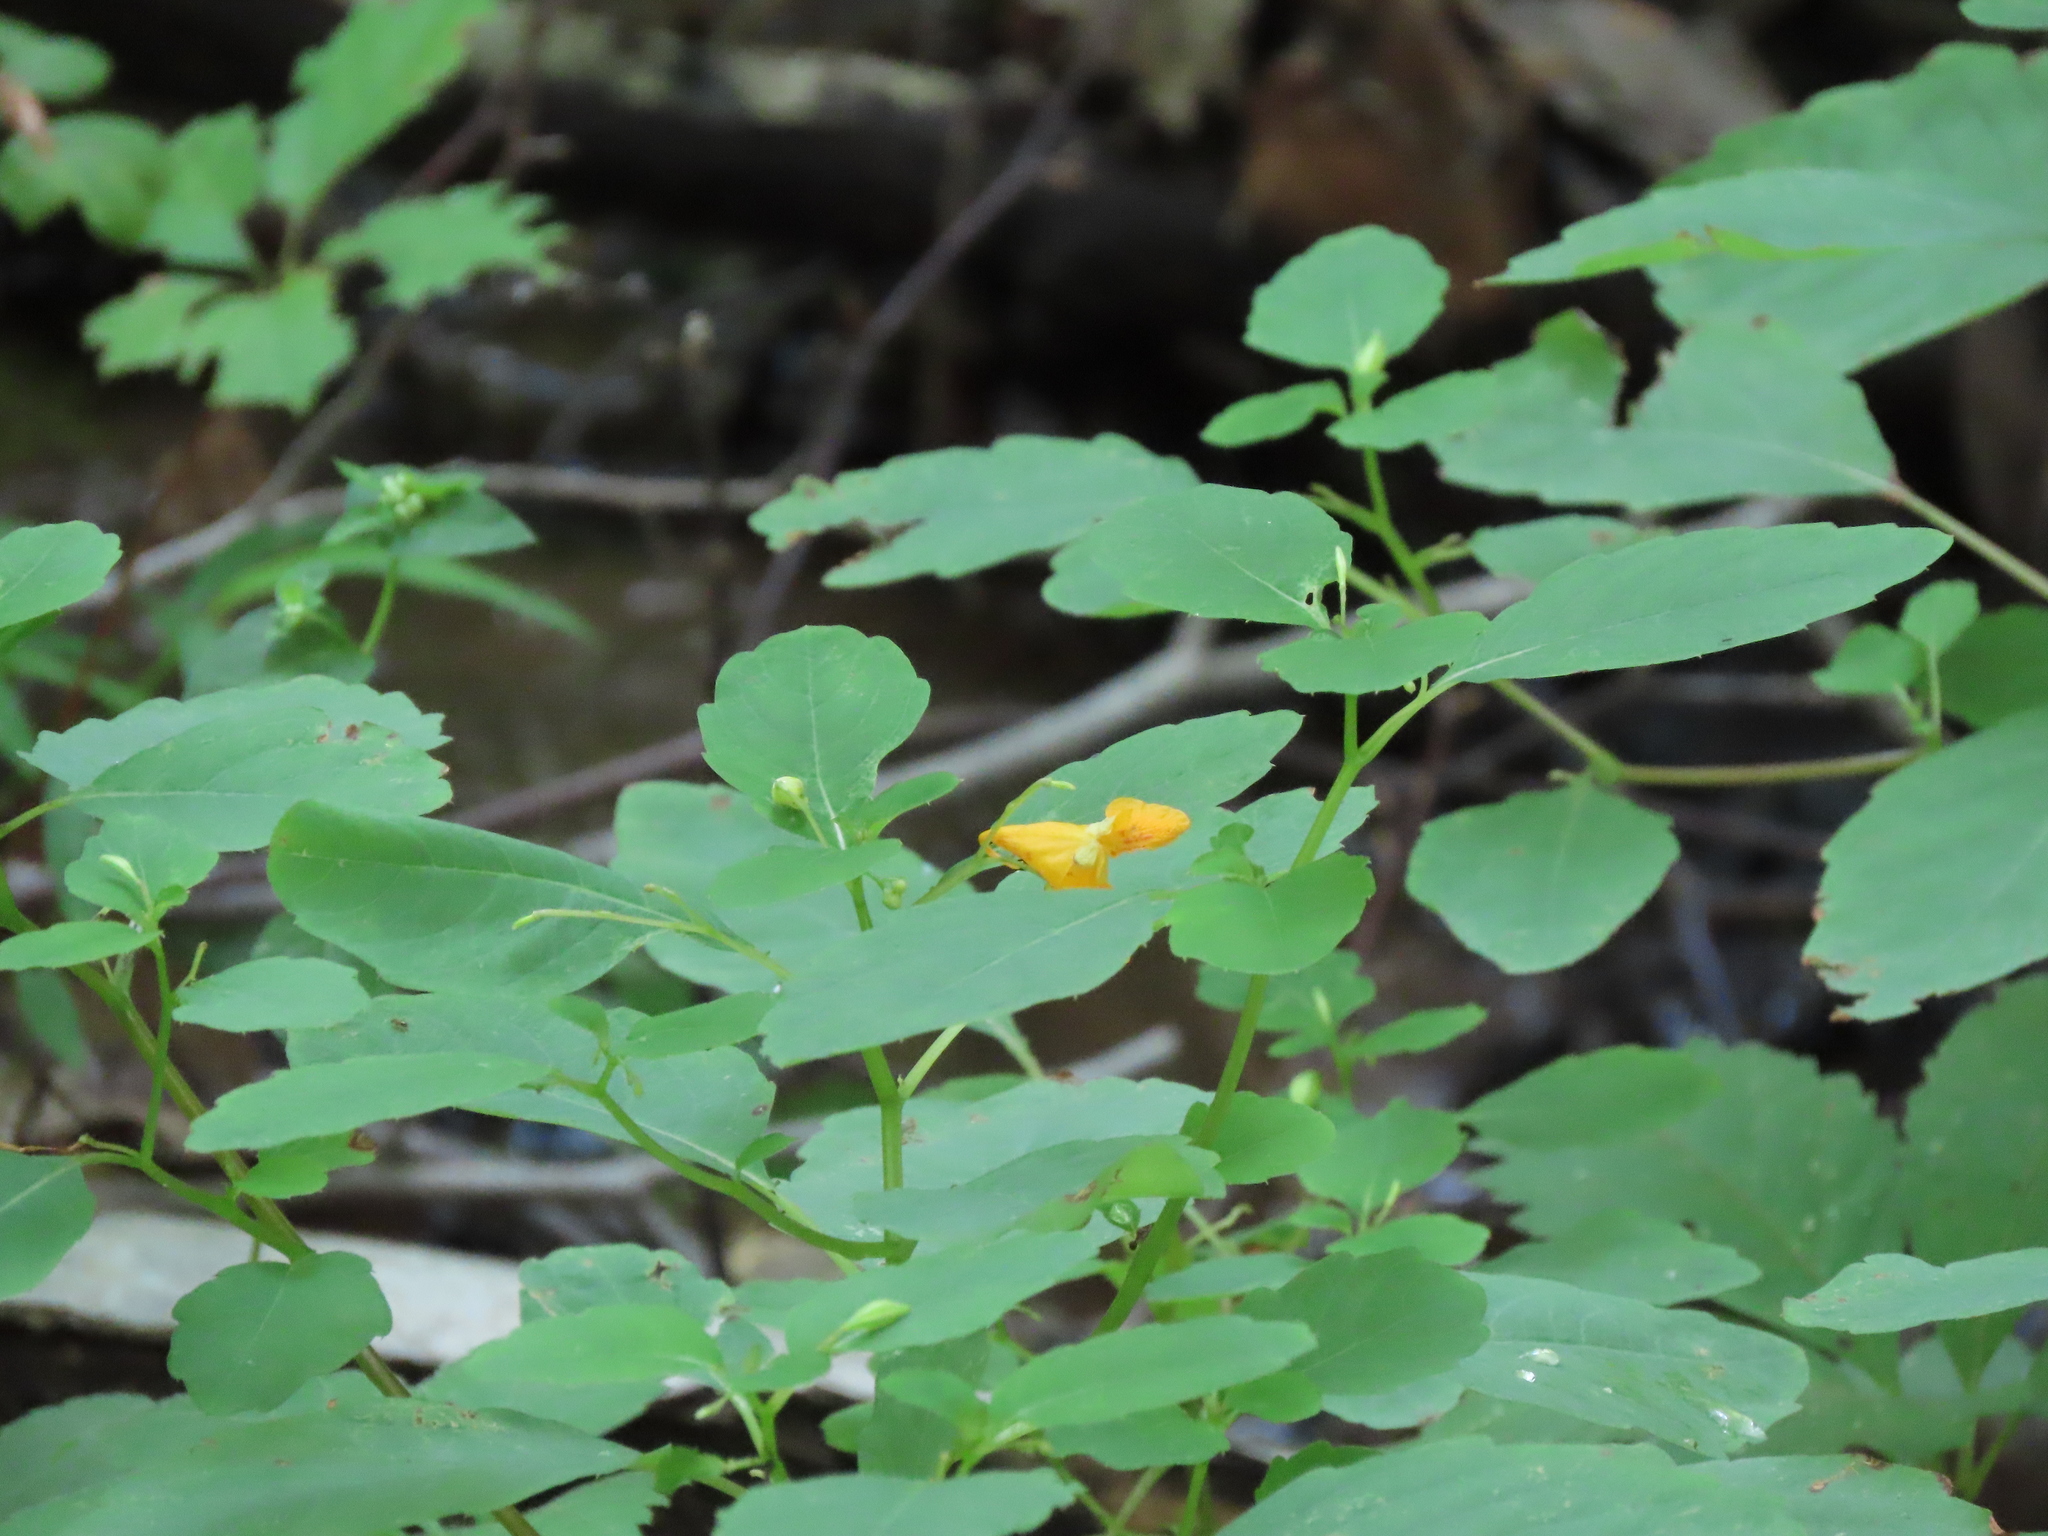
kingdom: Plantae
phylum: Tracheophyta
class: Magnoliopsida
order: Ericales
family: Balsaminaceae
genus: Impatiens
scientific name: Impatiens capensis
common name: Orange balsam
